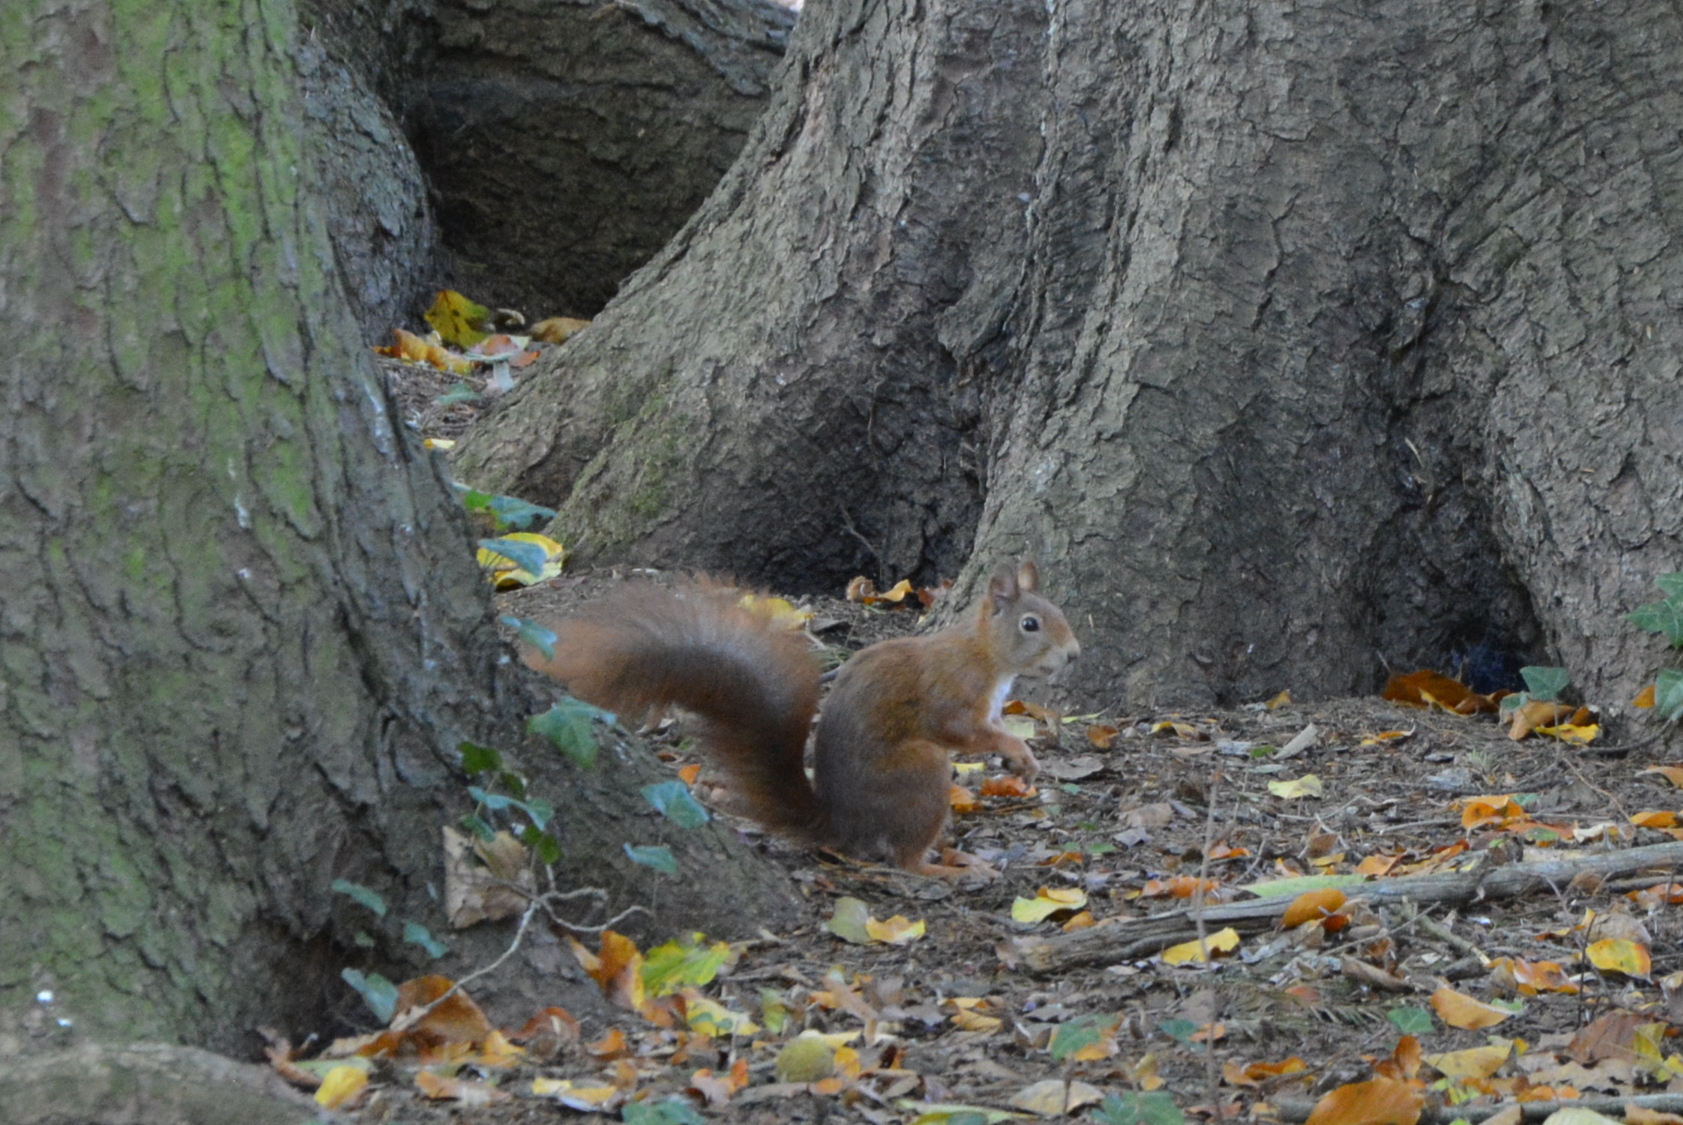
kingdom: Animalia
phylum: Chordata
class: Mammalia
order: Rodentia
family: Sciuridae
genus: Sciurus
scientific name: Sciurus vulgaris
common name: Eurasian red squirrel
